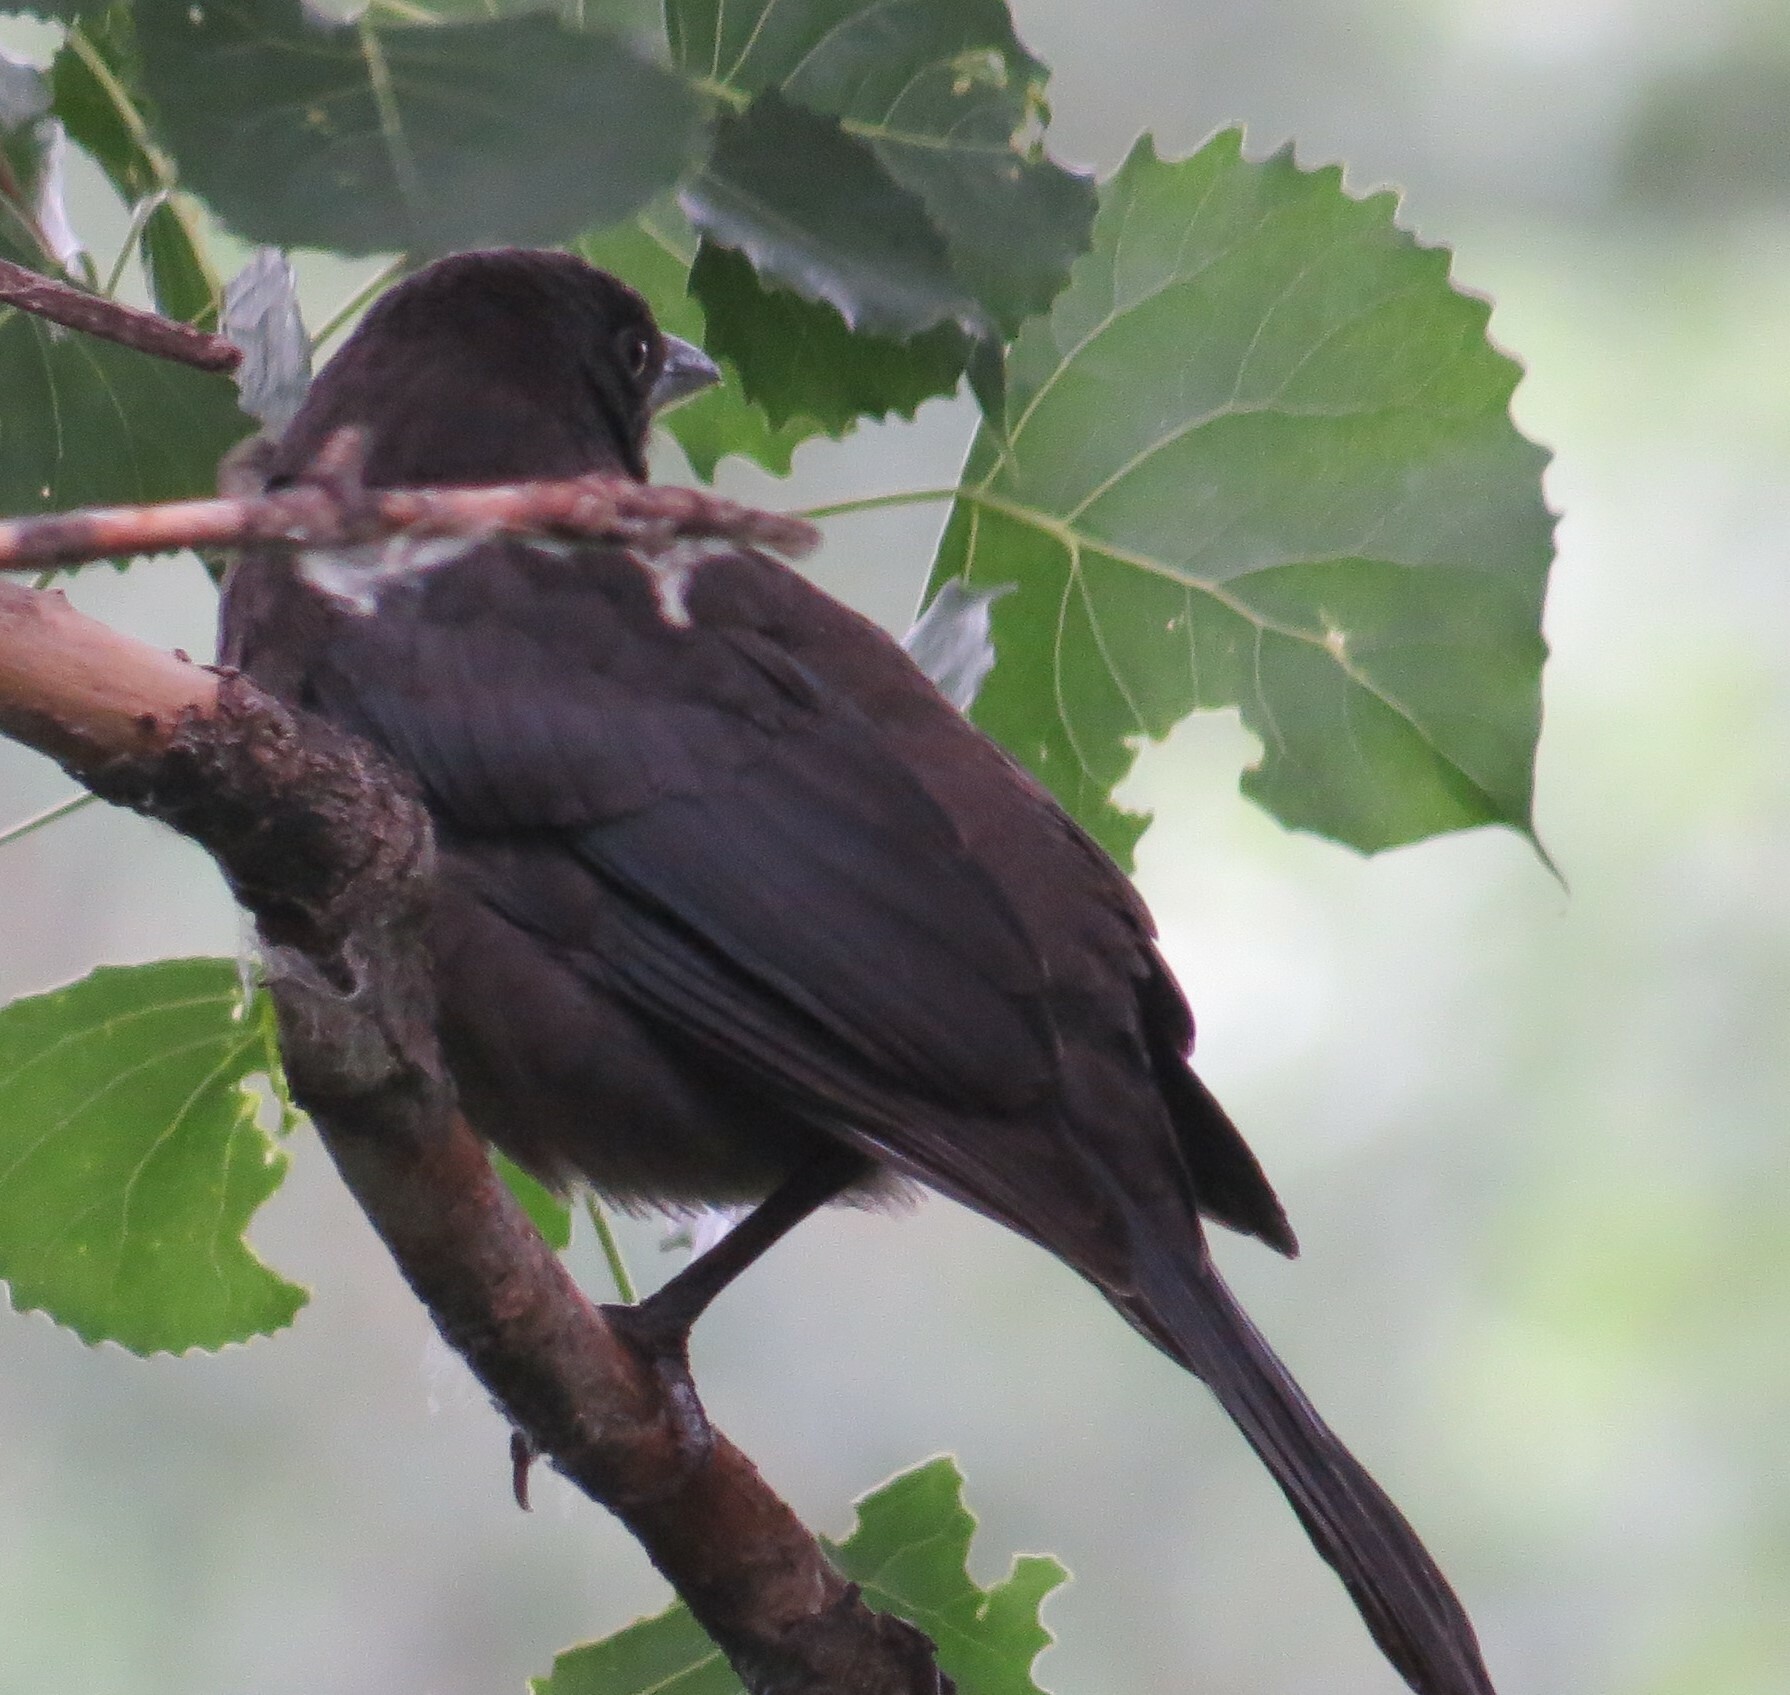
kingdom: Animalia
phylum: Chordata
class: Aves
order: Passeriformes
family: Icteridae
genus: Quiscalus
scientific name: Quiscalus quiscula
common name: Common grackle
